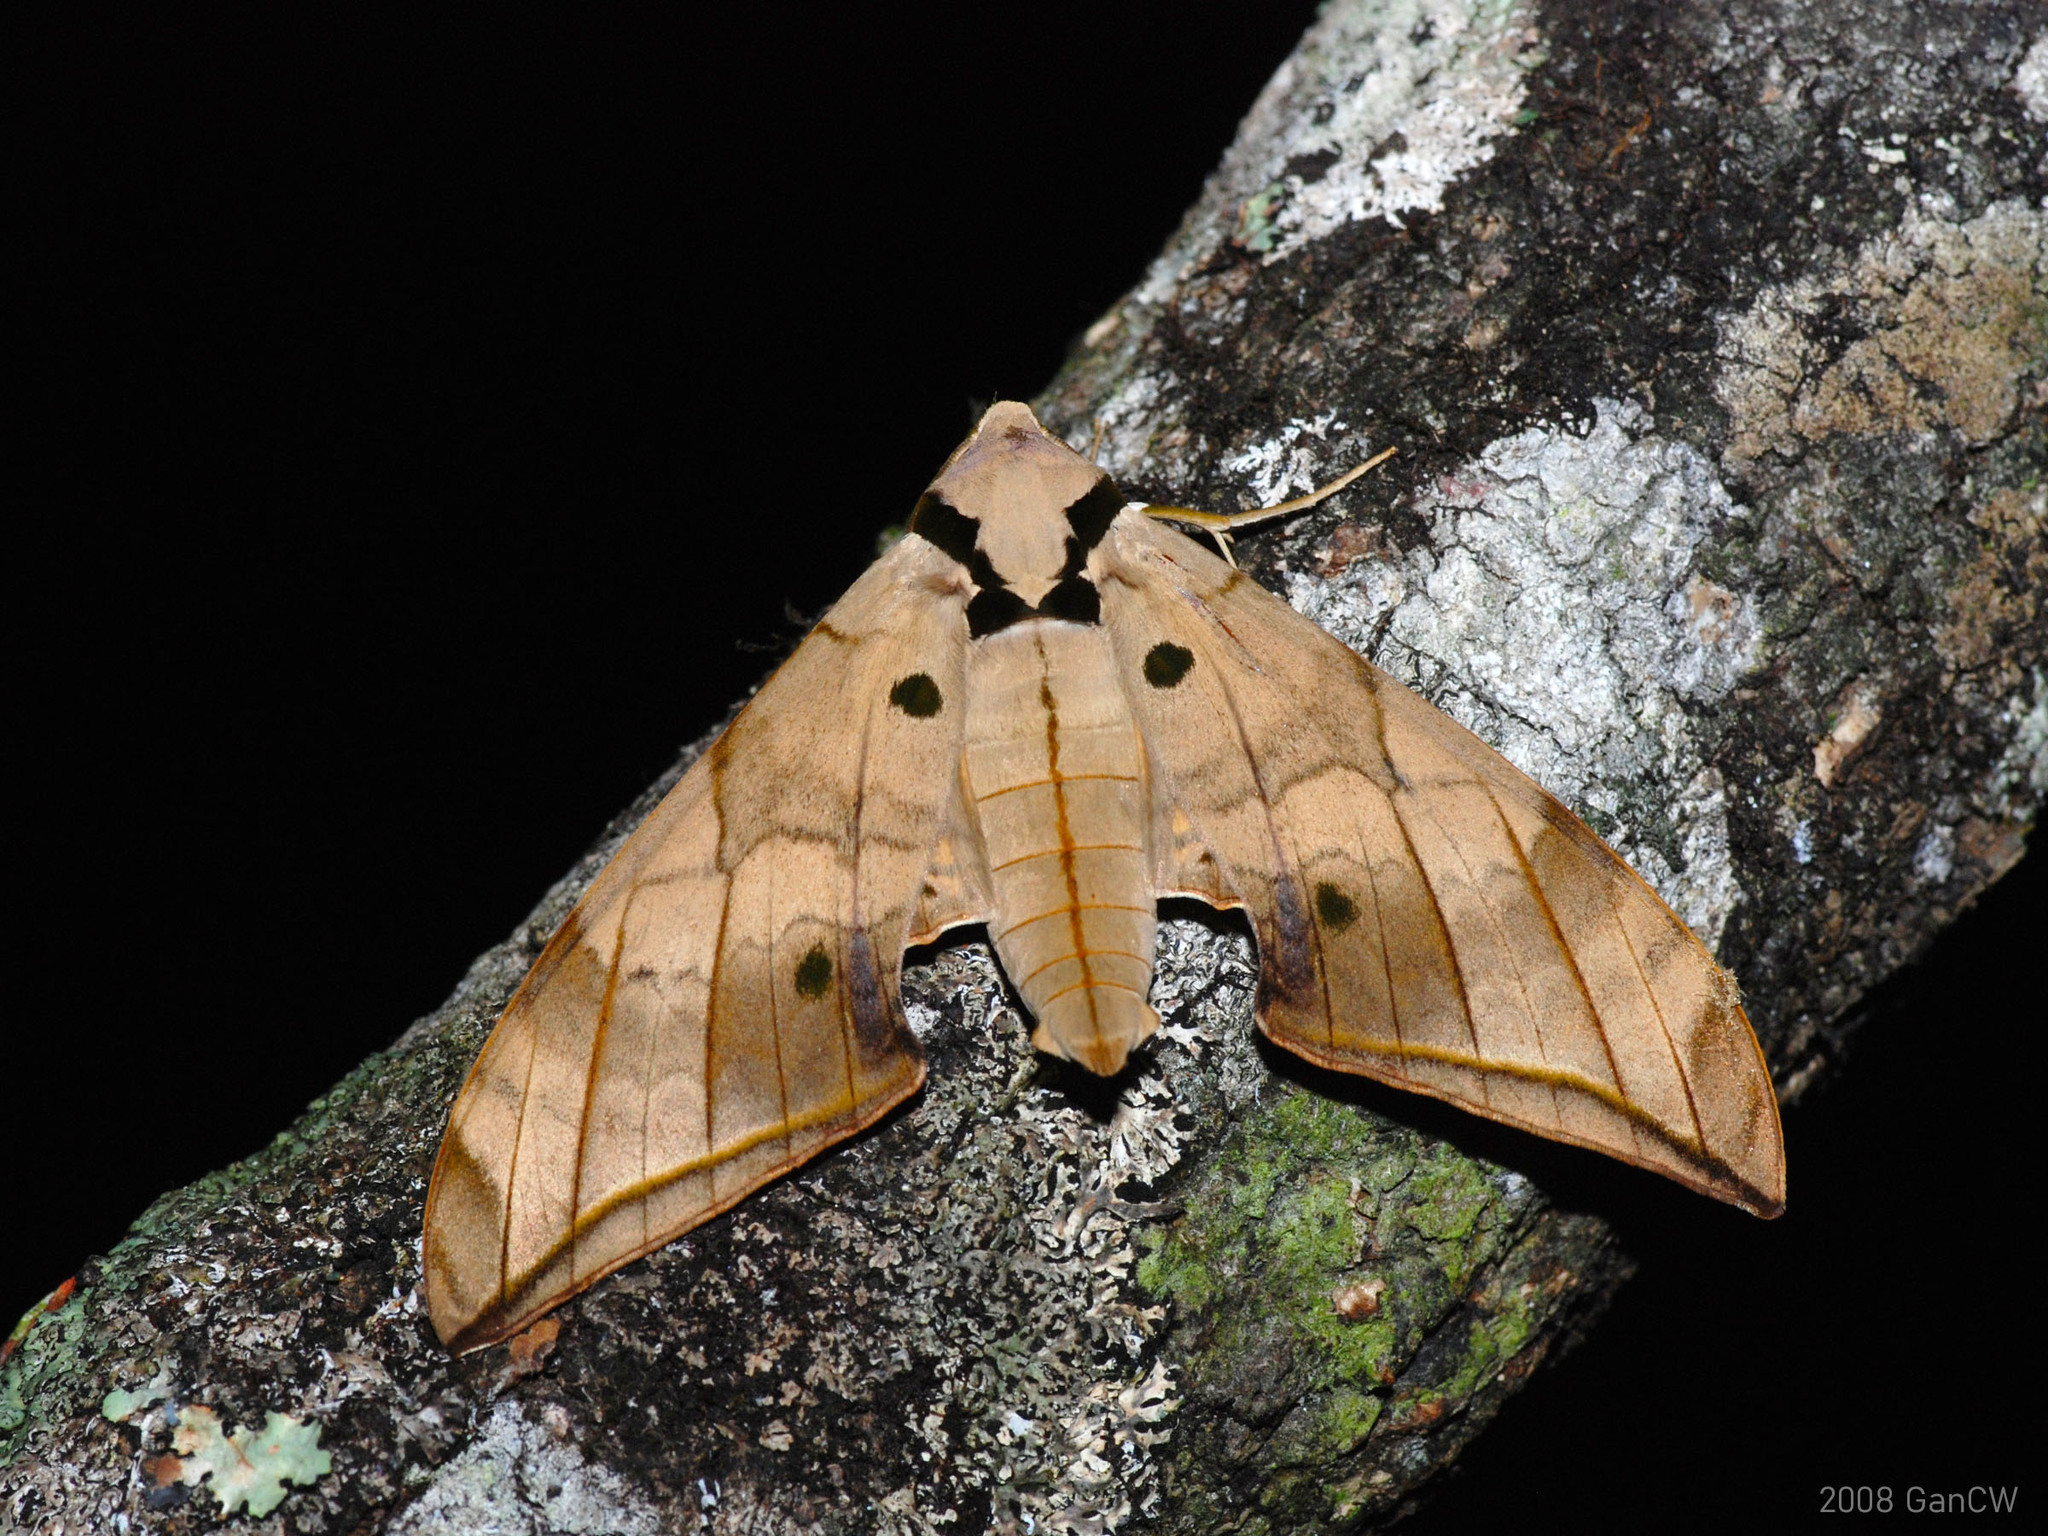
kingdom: Animalia
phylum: Arthropoda
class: Insecta
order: Lepidoptera
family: Sphingidae
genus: Ambulyx
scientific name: Ambulyx substrigilis
